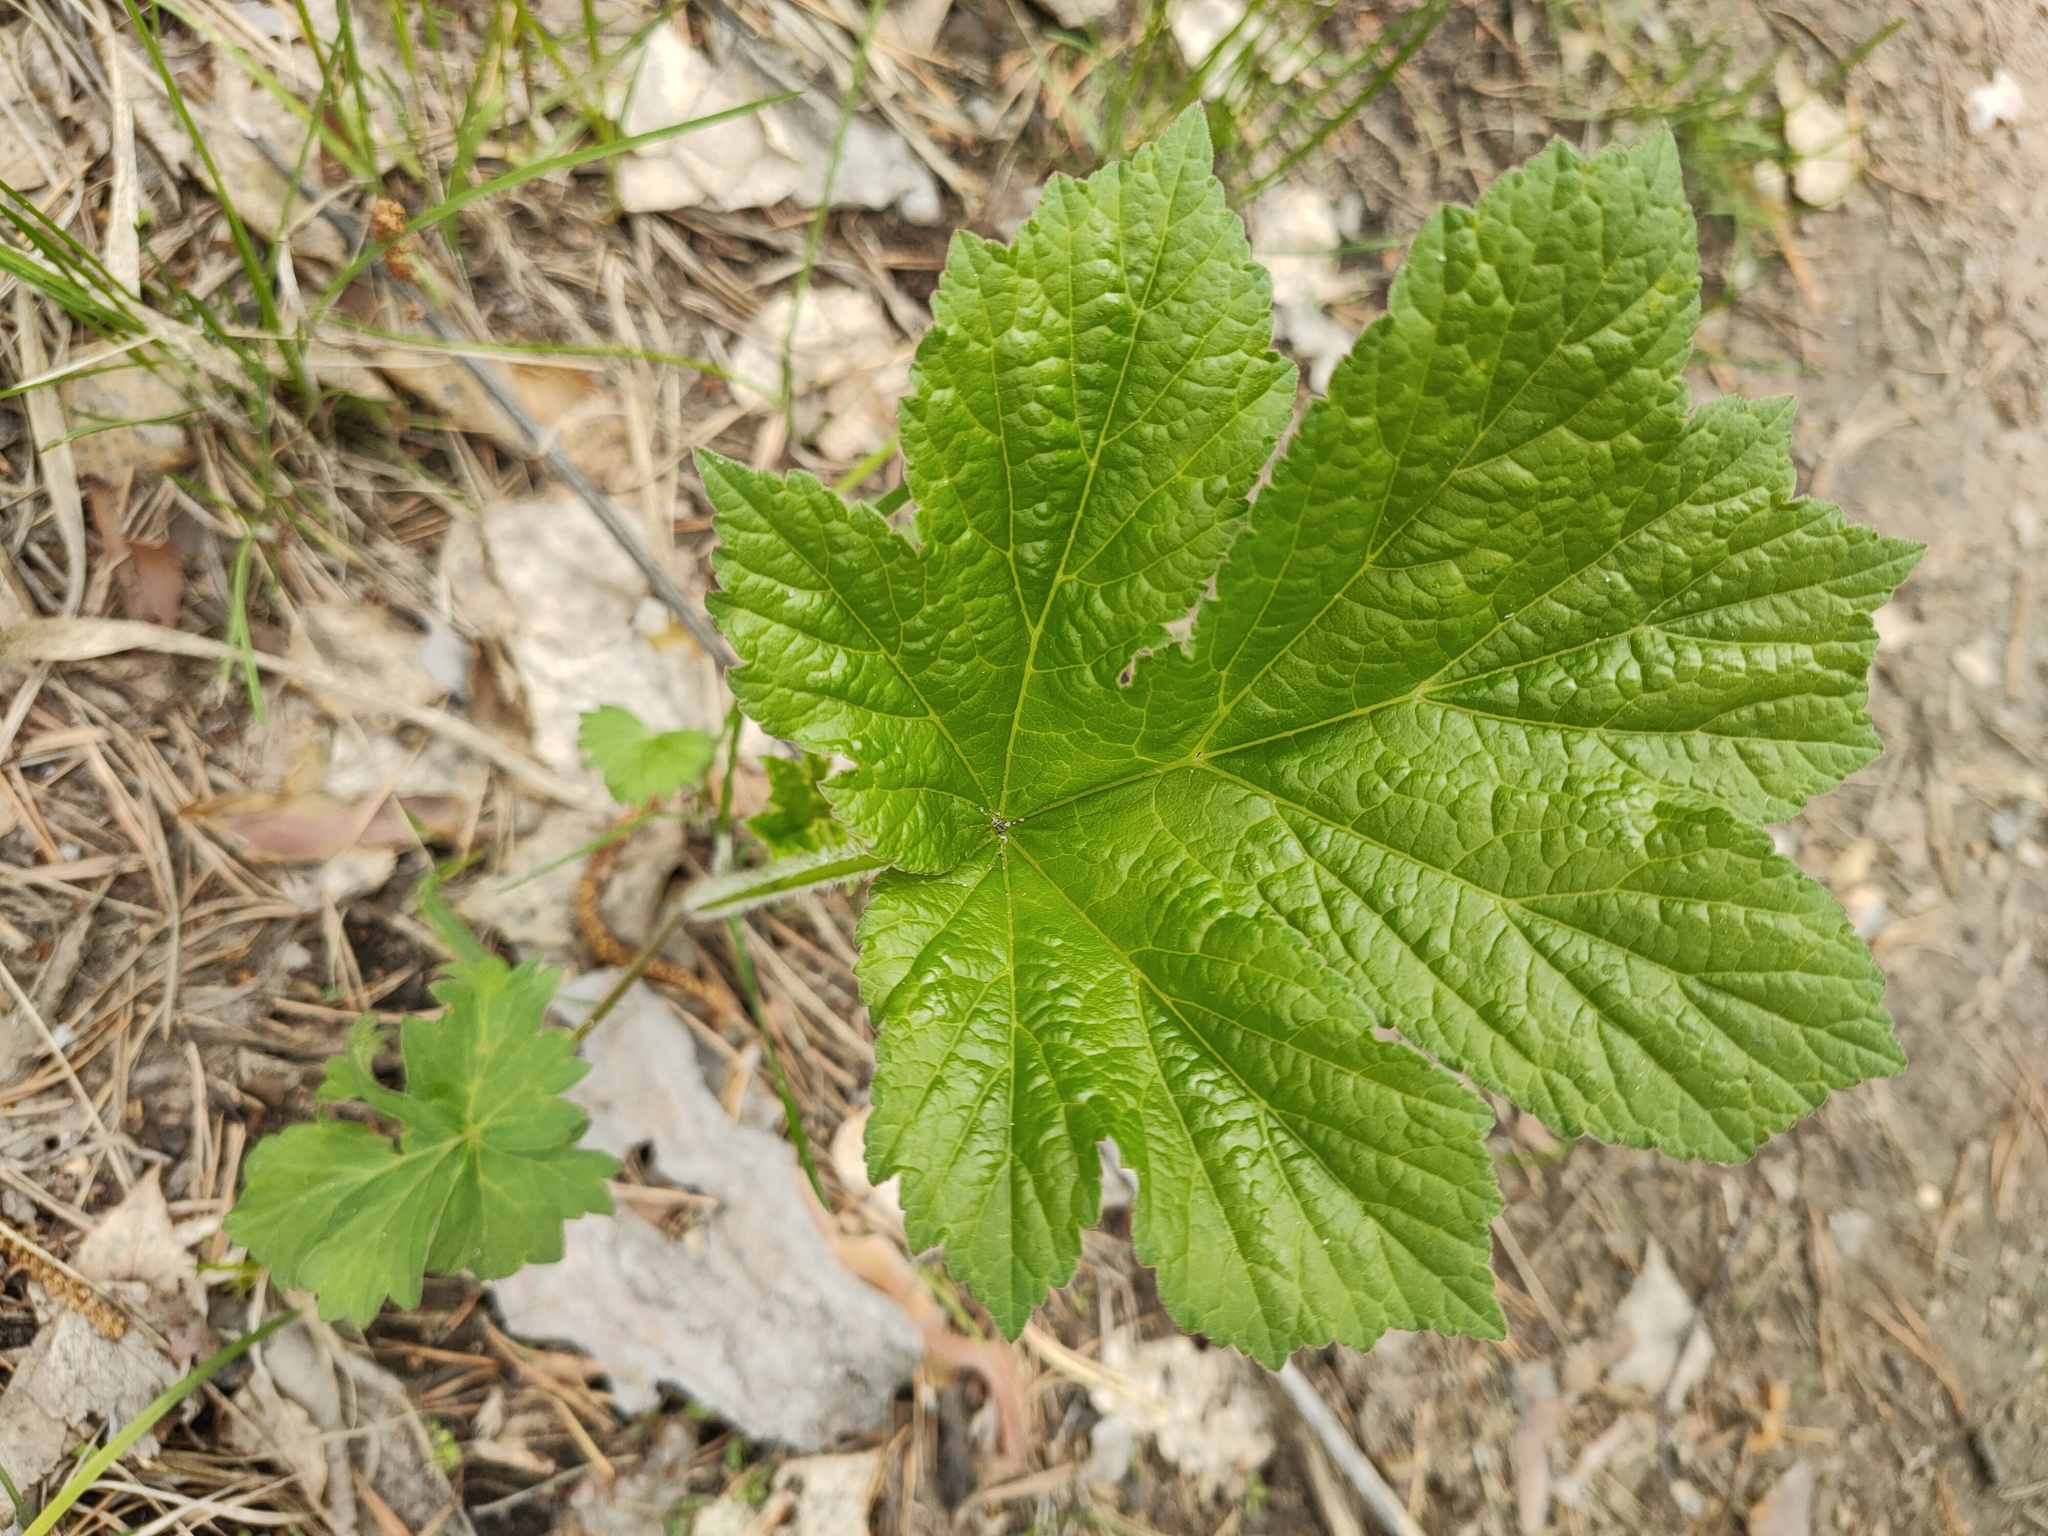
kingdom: Plantae
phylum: Tracheophyta
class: Magnoliopsida
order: Apiales
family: Apiaceae
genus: Heracleum
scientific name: Heracleum sphondylium
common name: Hogweed
